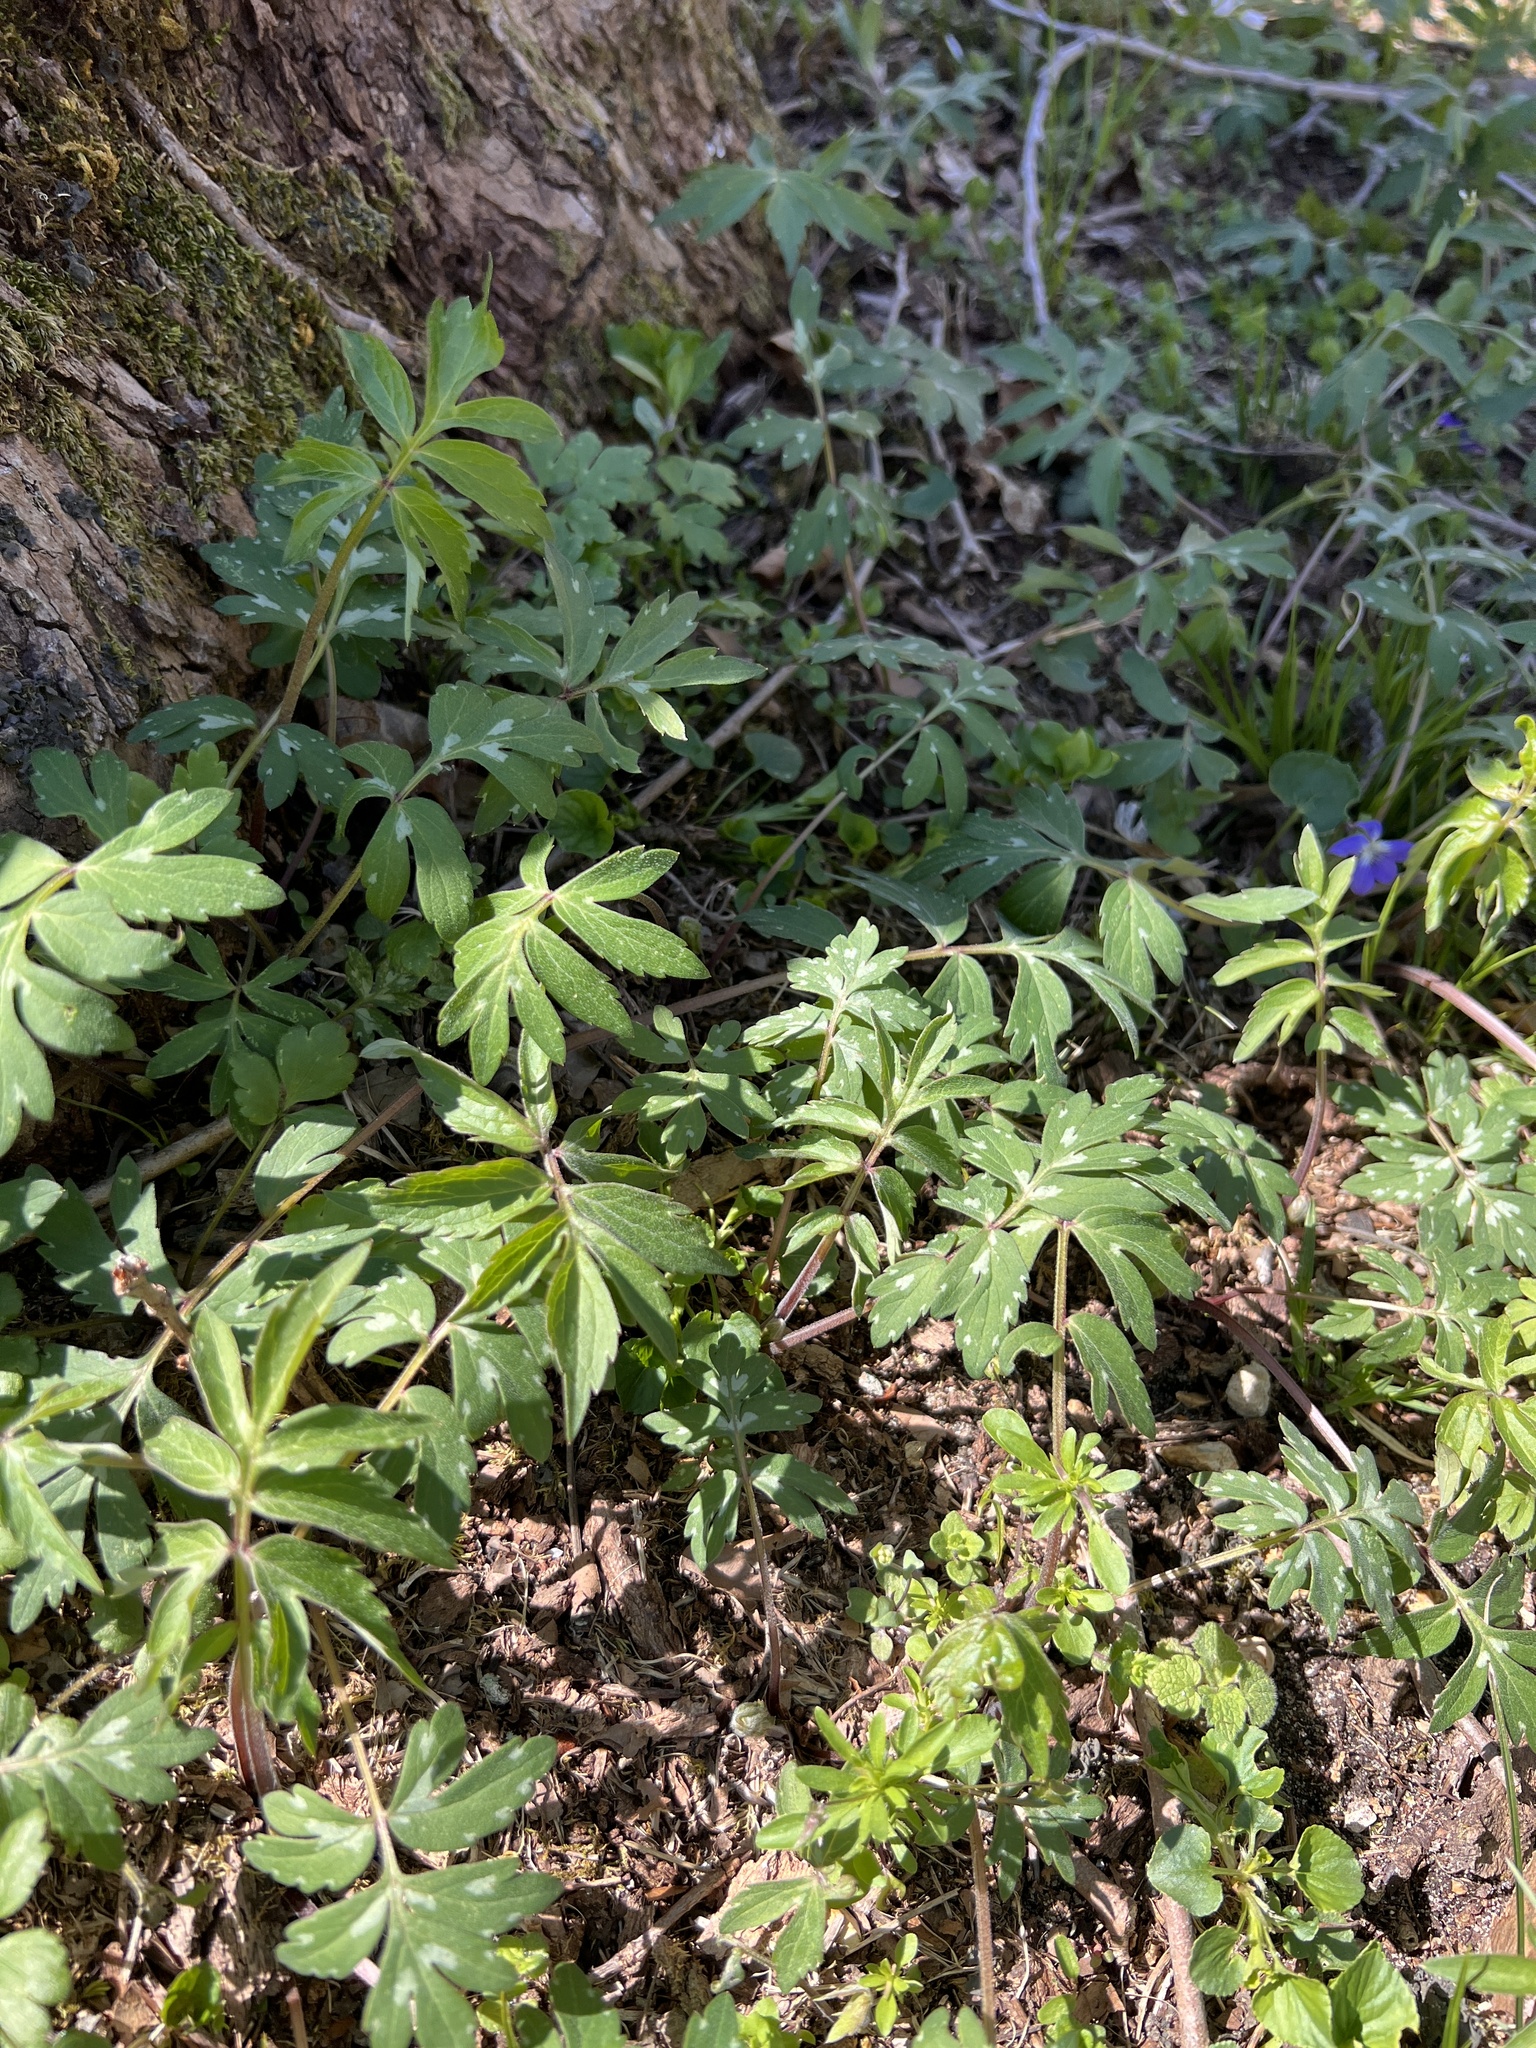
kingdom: Plantae
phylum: Tracheophyta
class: Magnoliopsida
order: Boraginales
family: Hydrophyllaceae
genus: Hydrophyllum
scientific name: Hydrophyllum virginianum
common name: Virginia waterleaf
